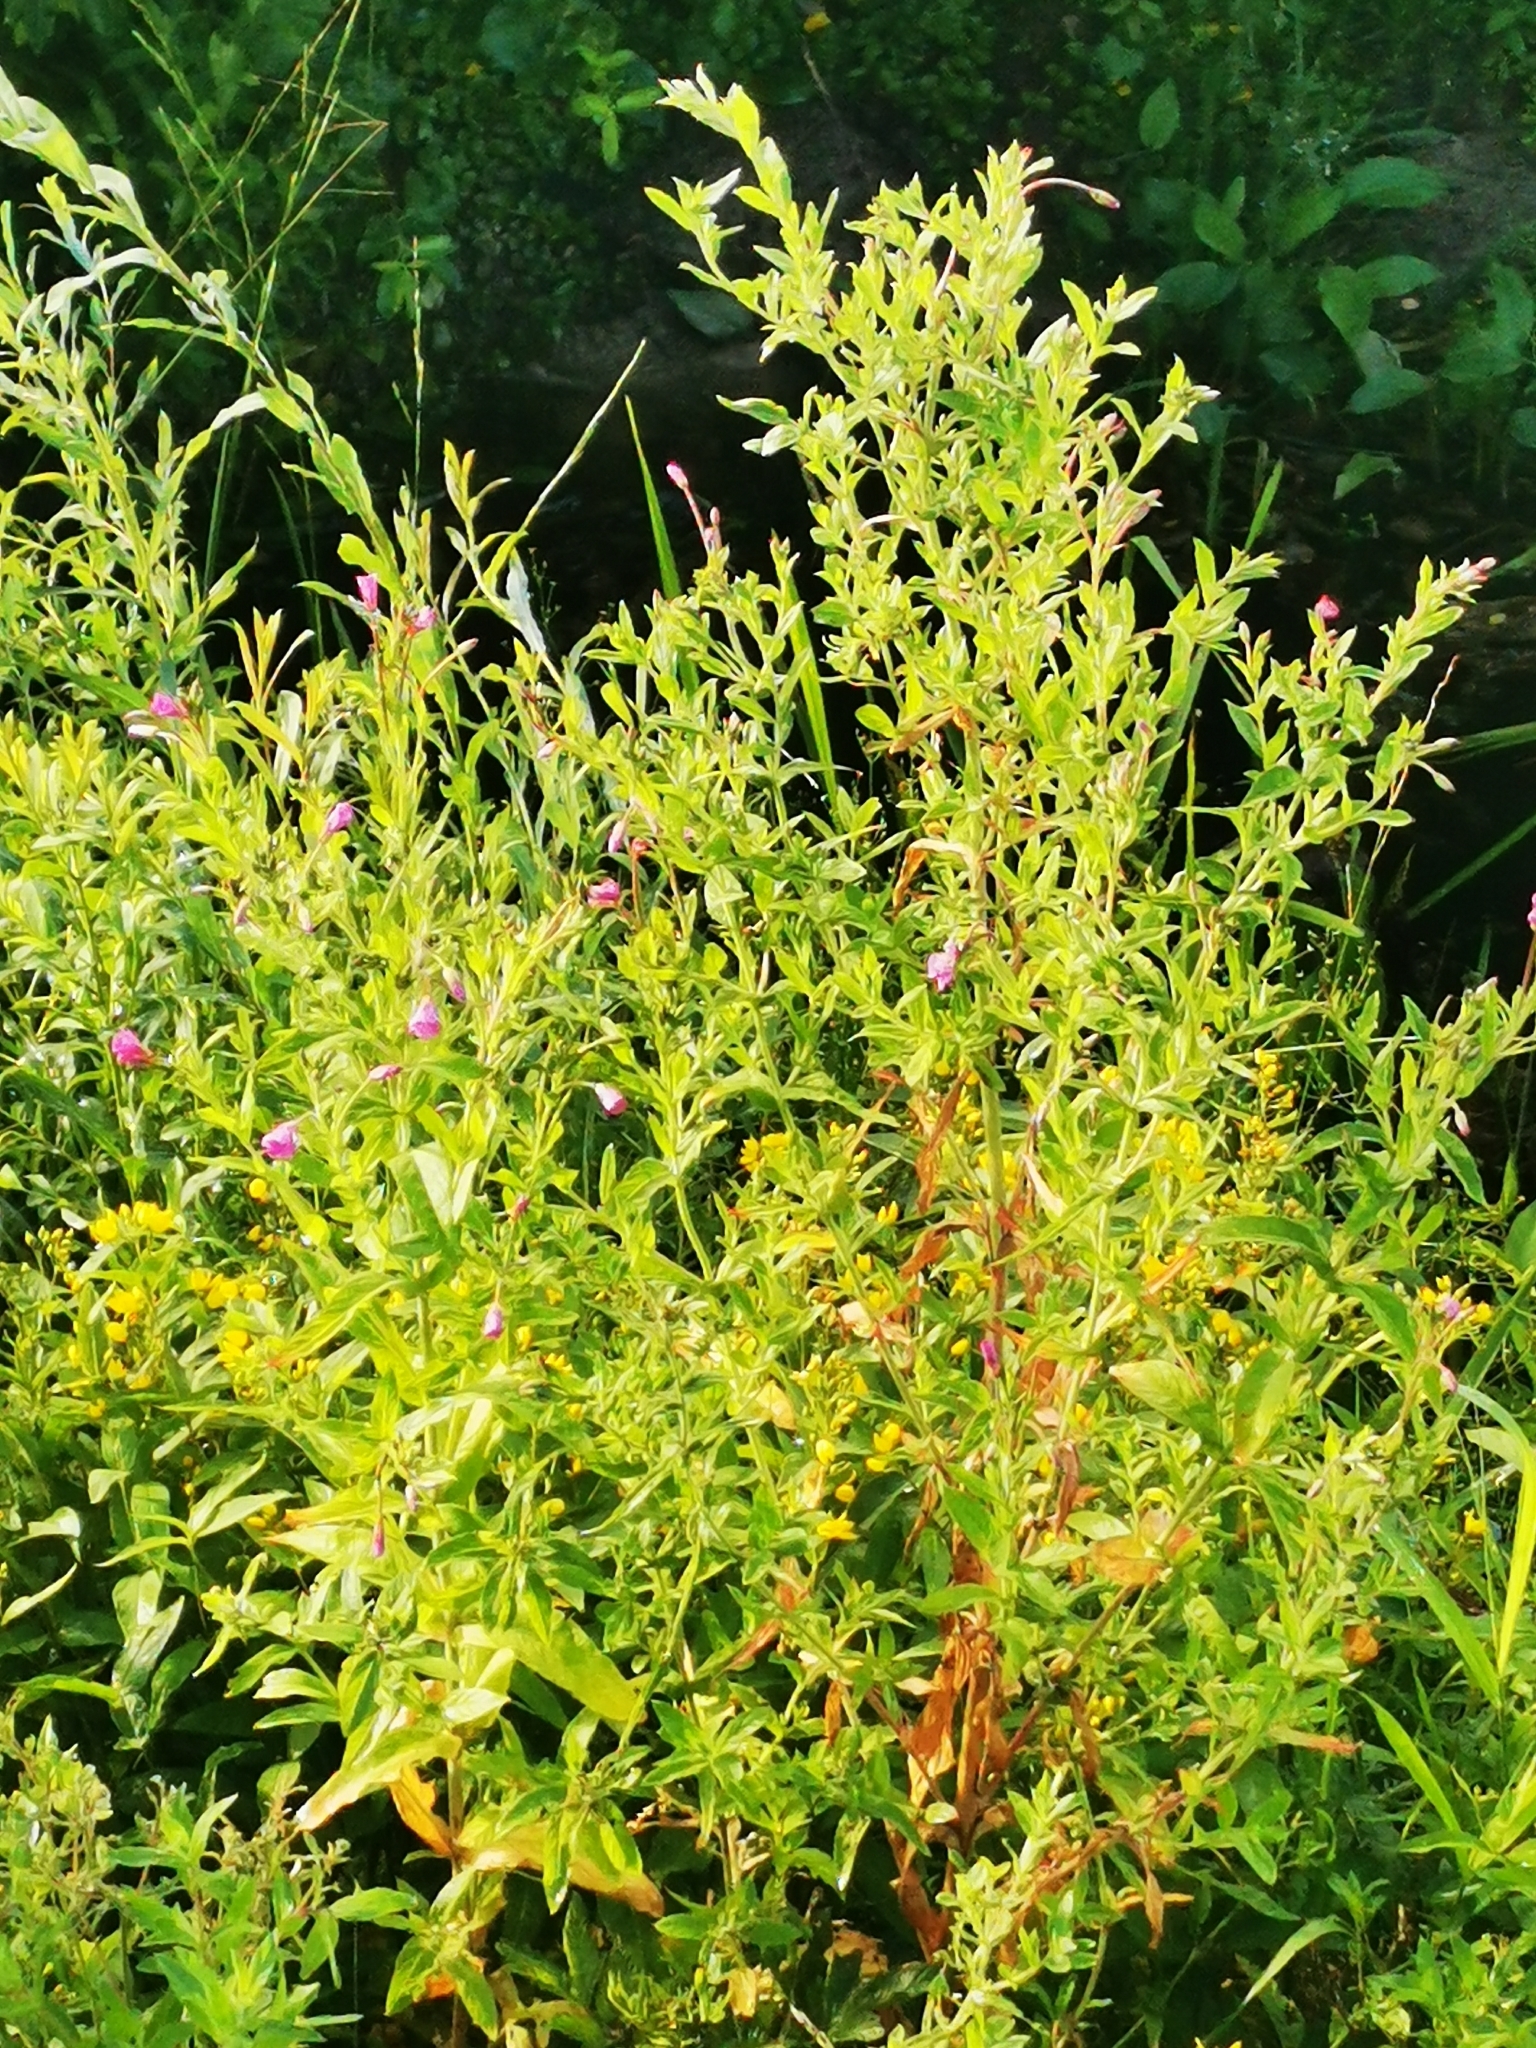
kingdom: Plantae
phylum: Tracheophyta
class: Magnoliopsida
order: Myrtales
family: Onagraceae
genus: Epilobium
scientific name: Epilobium hirsutum
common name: Great willowherb
